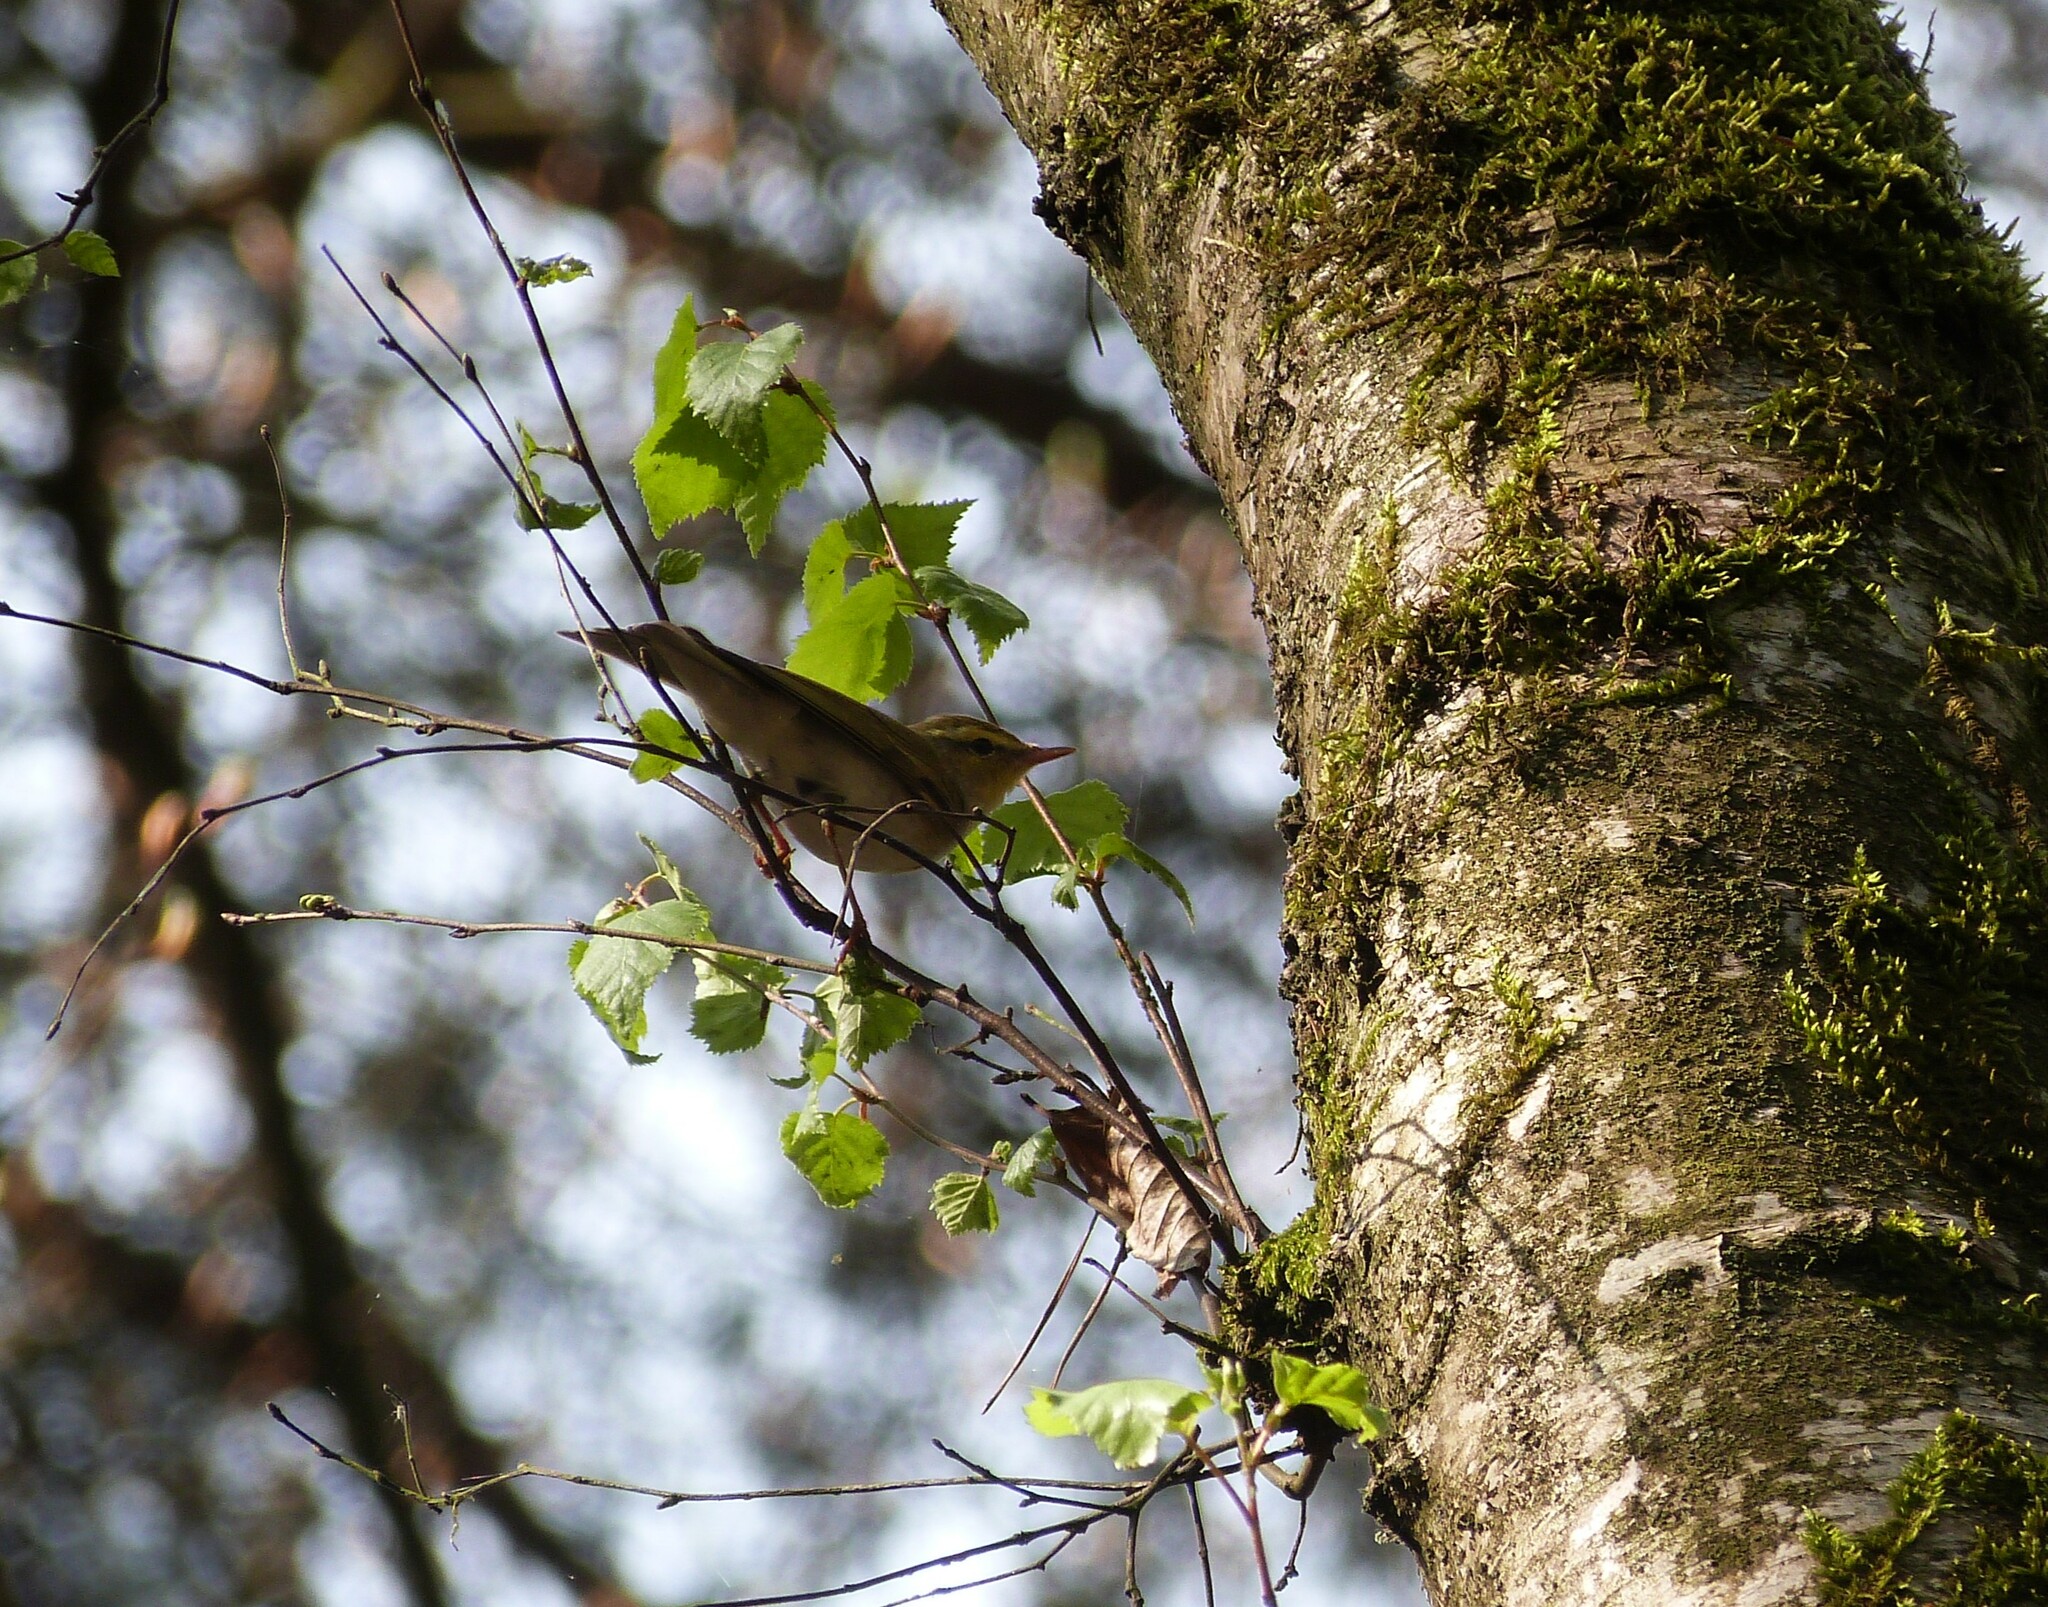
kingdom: Animalia
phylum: Chordata
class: Aves
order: Passeriformes
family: Phylloscopidae
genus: Phylloscopus
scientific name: Phylloscopus trochilus
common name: Willow warbler
